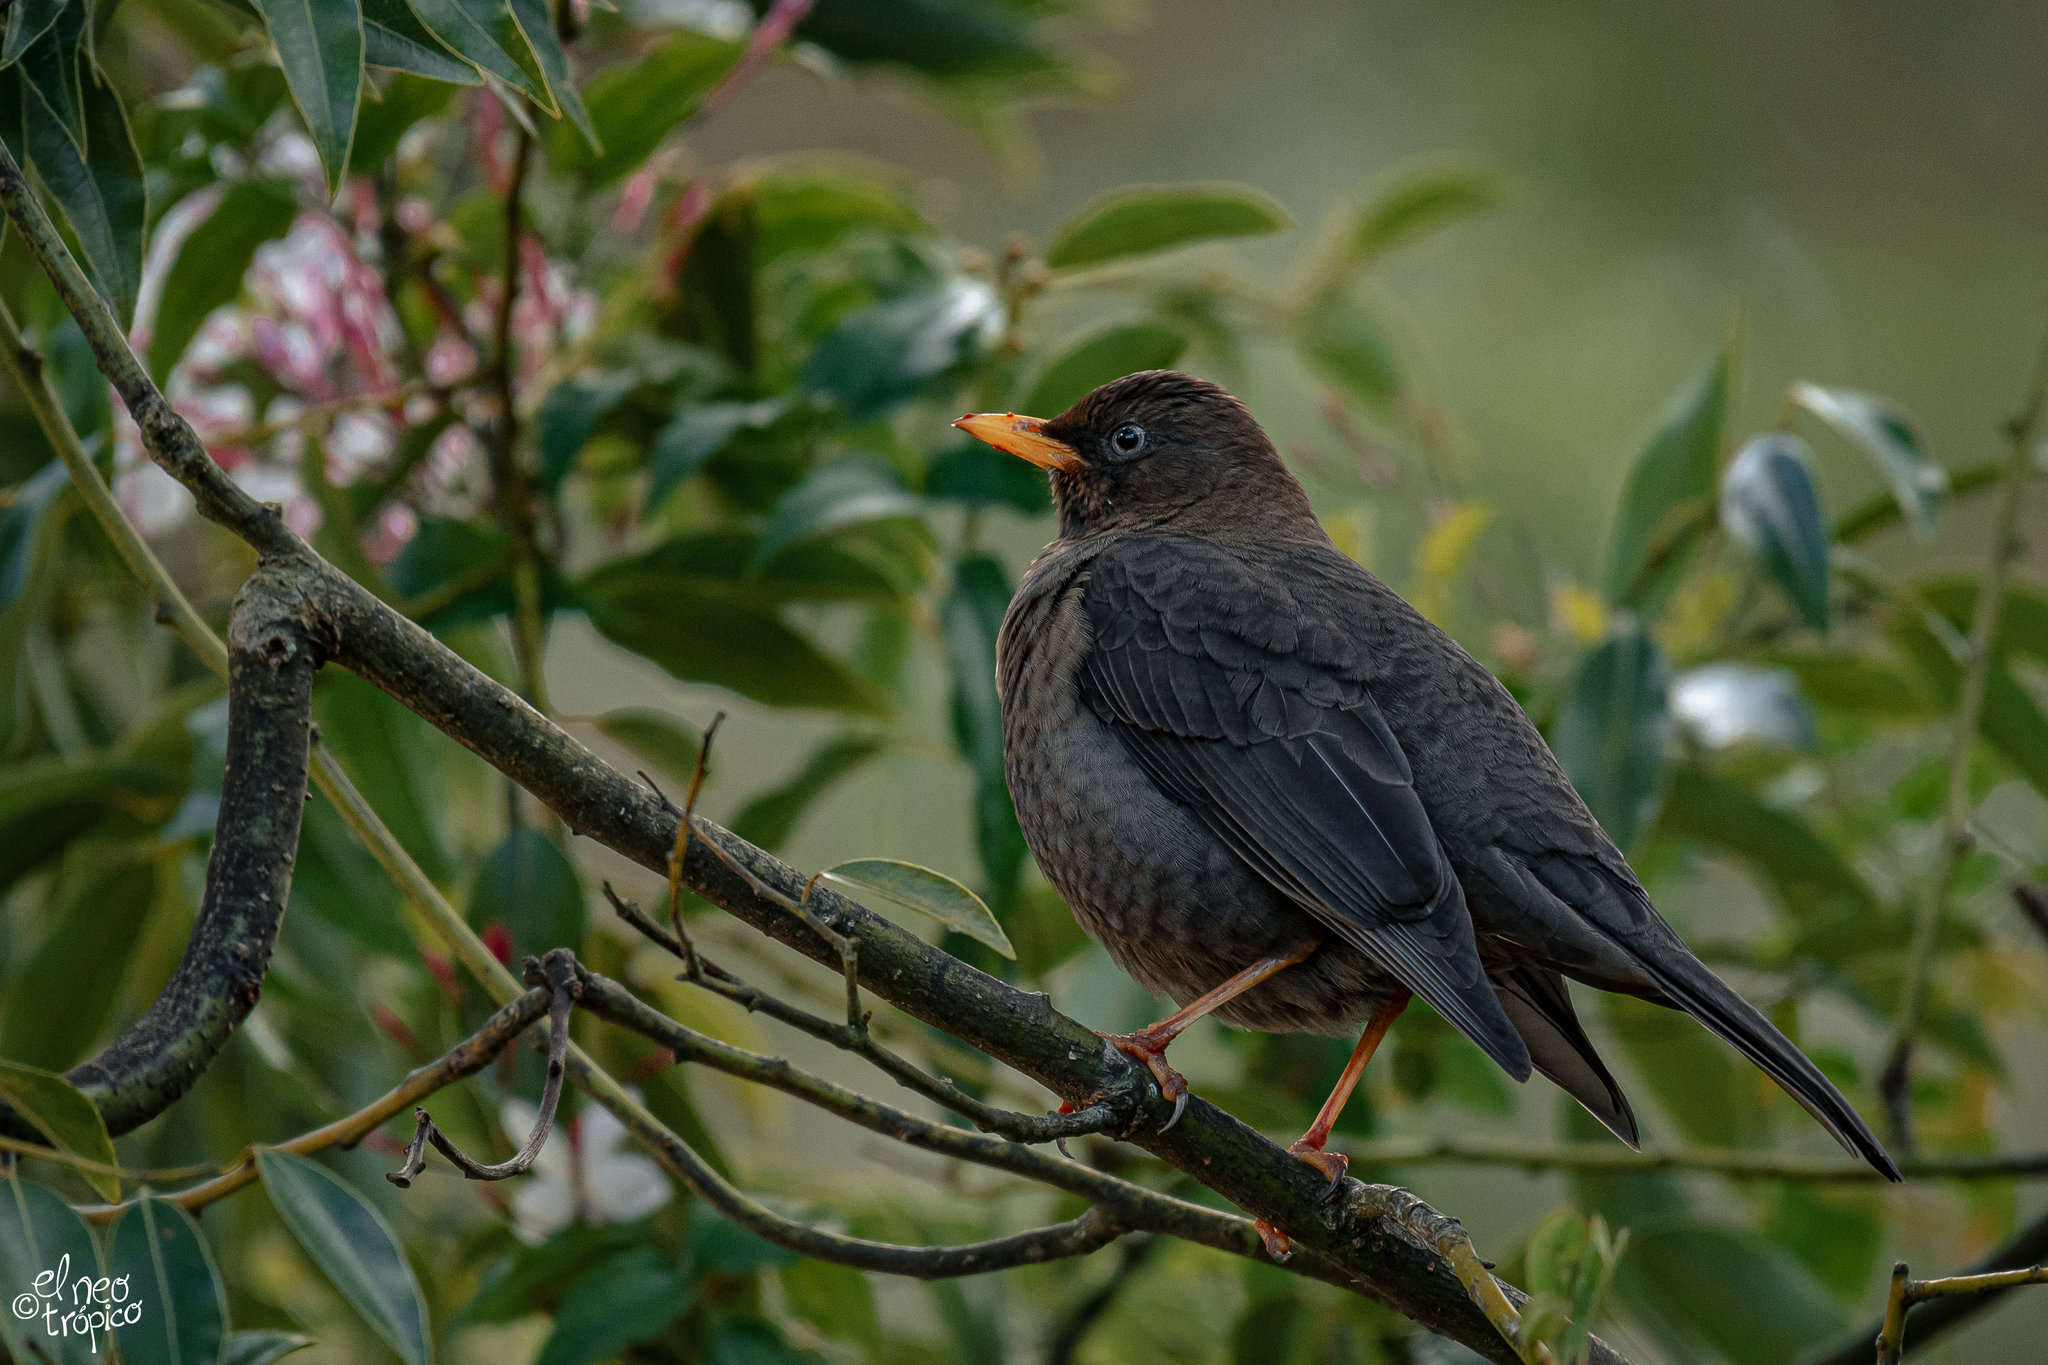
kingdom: Animalia
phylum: Chordata
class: Aves
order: Passeriformes
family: Turdidae
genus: Turdus
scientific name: Turdus rufitorques
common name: Rufous-collared thrush
